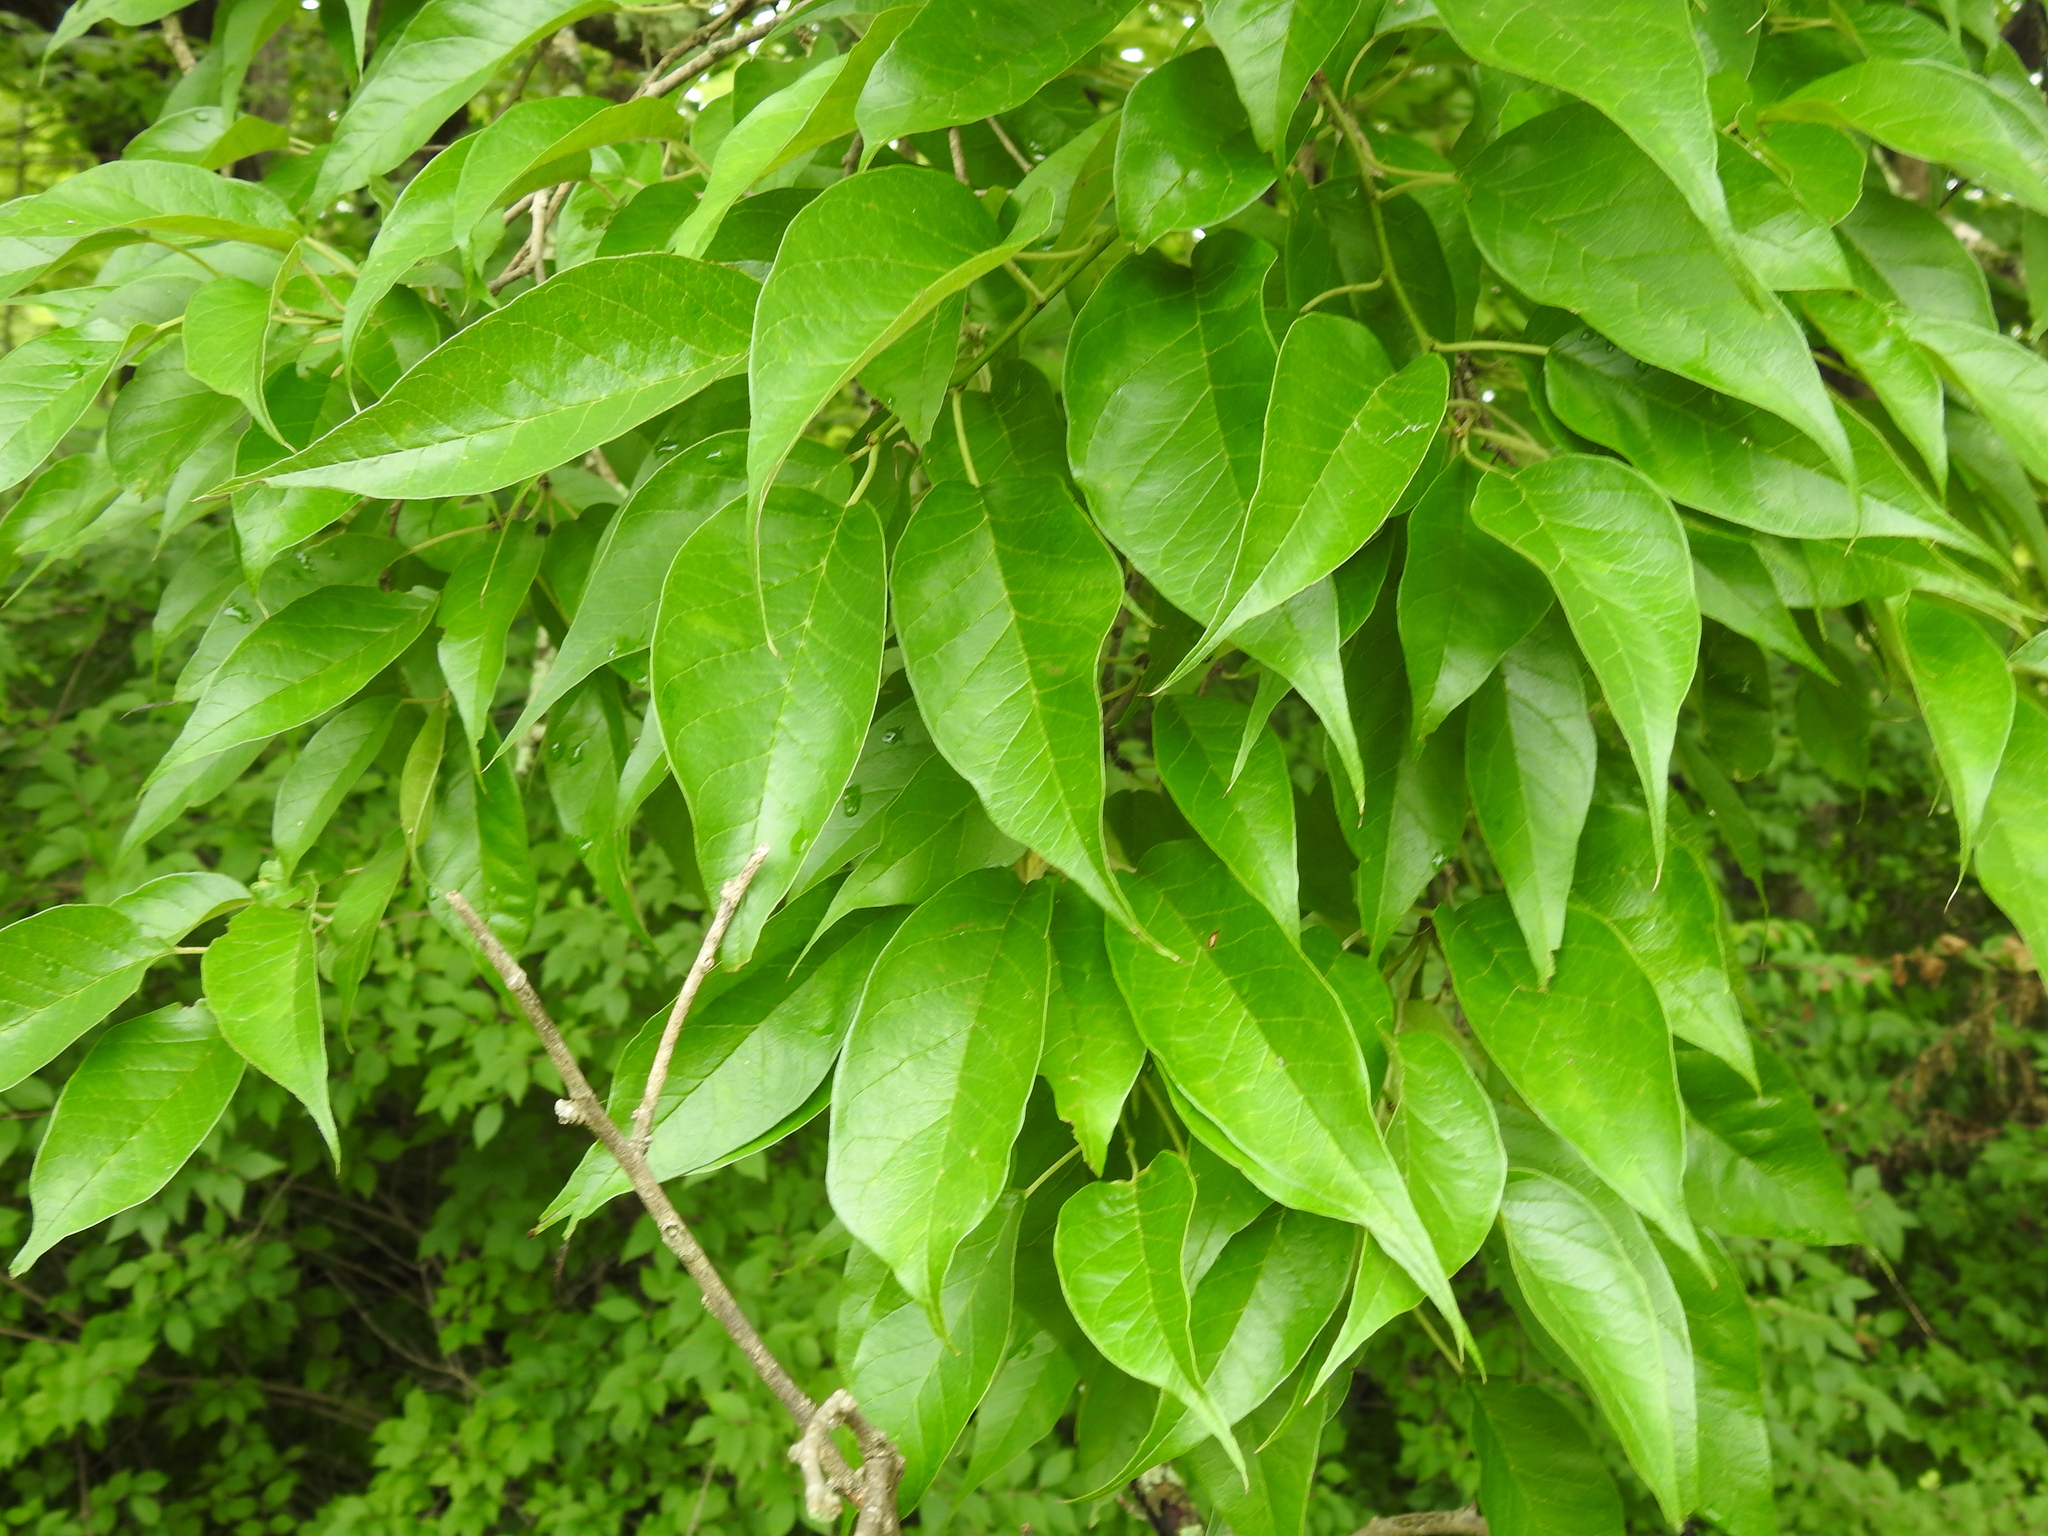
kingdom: Plantae
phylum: Tracheophyta
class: Magnoliopsida
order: Rosales
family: Moraceae
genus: Maclura
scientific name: Maclura pomifera
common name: Osage-orange
